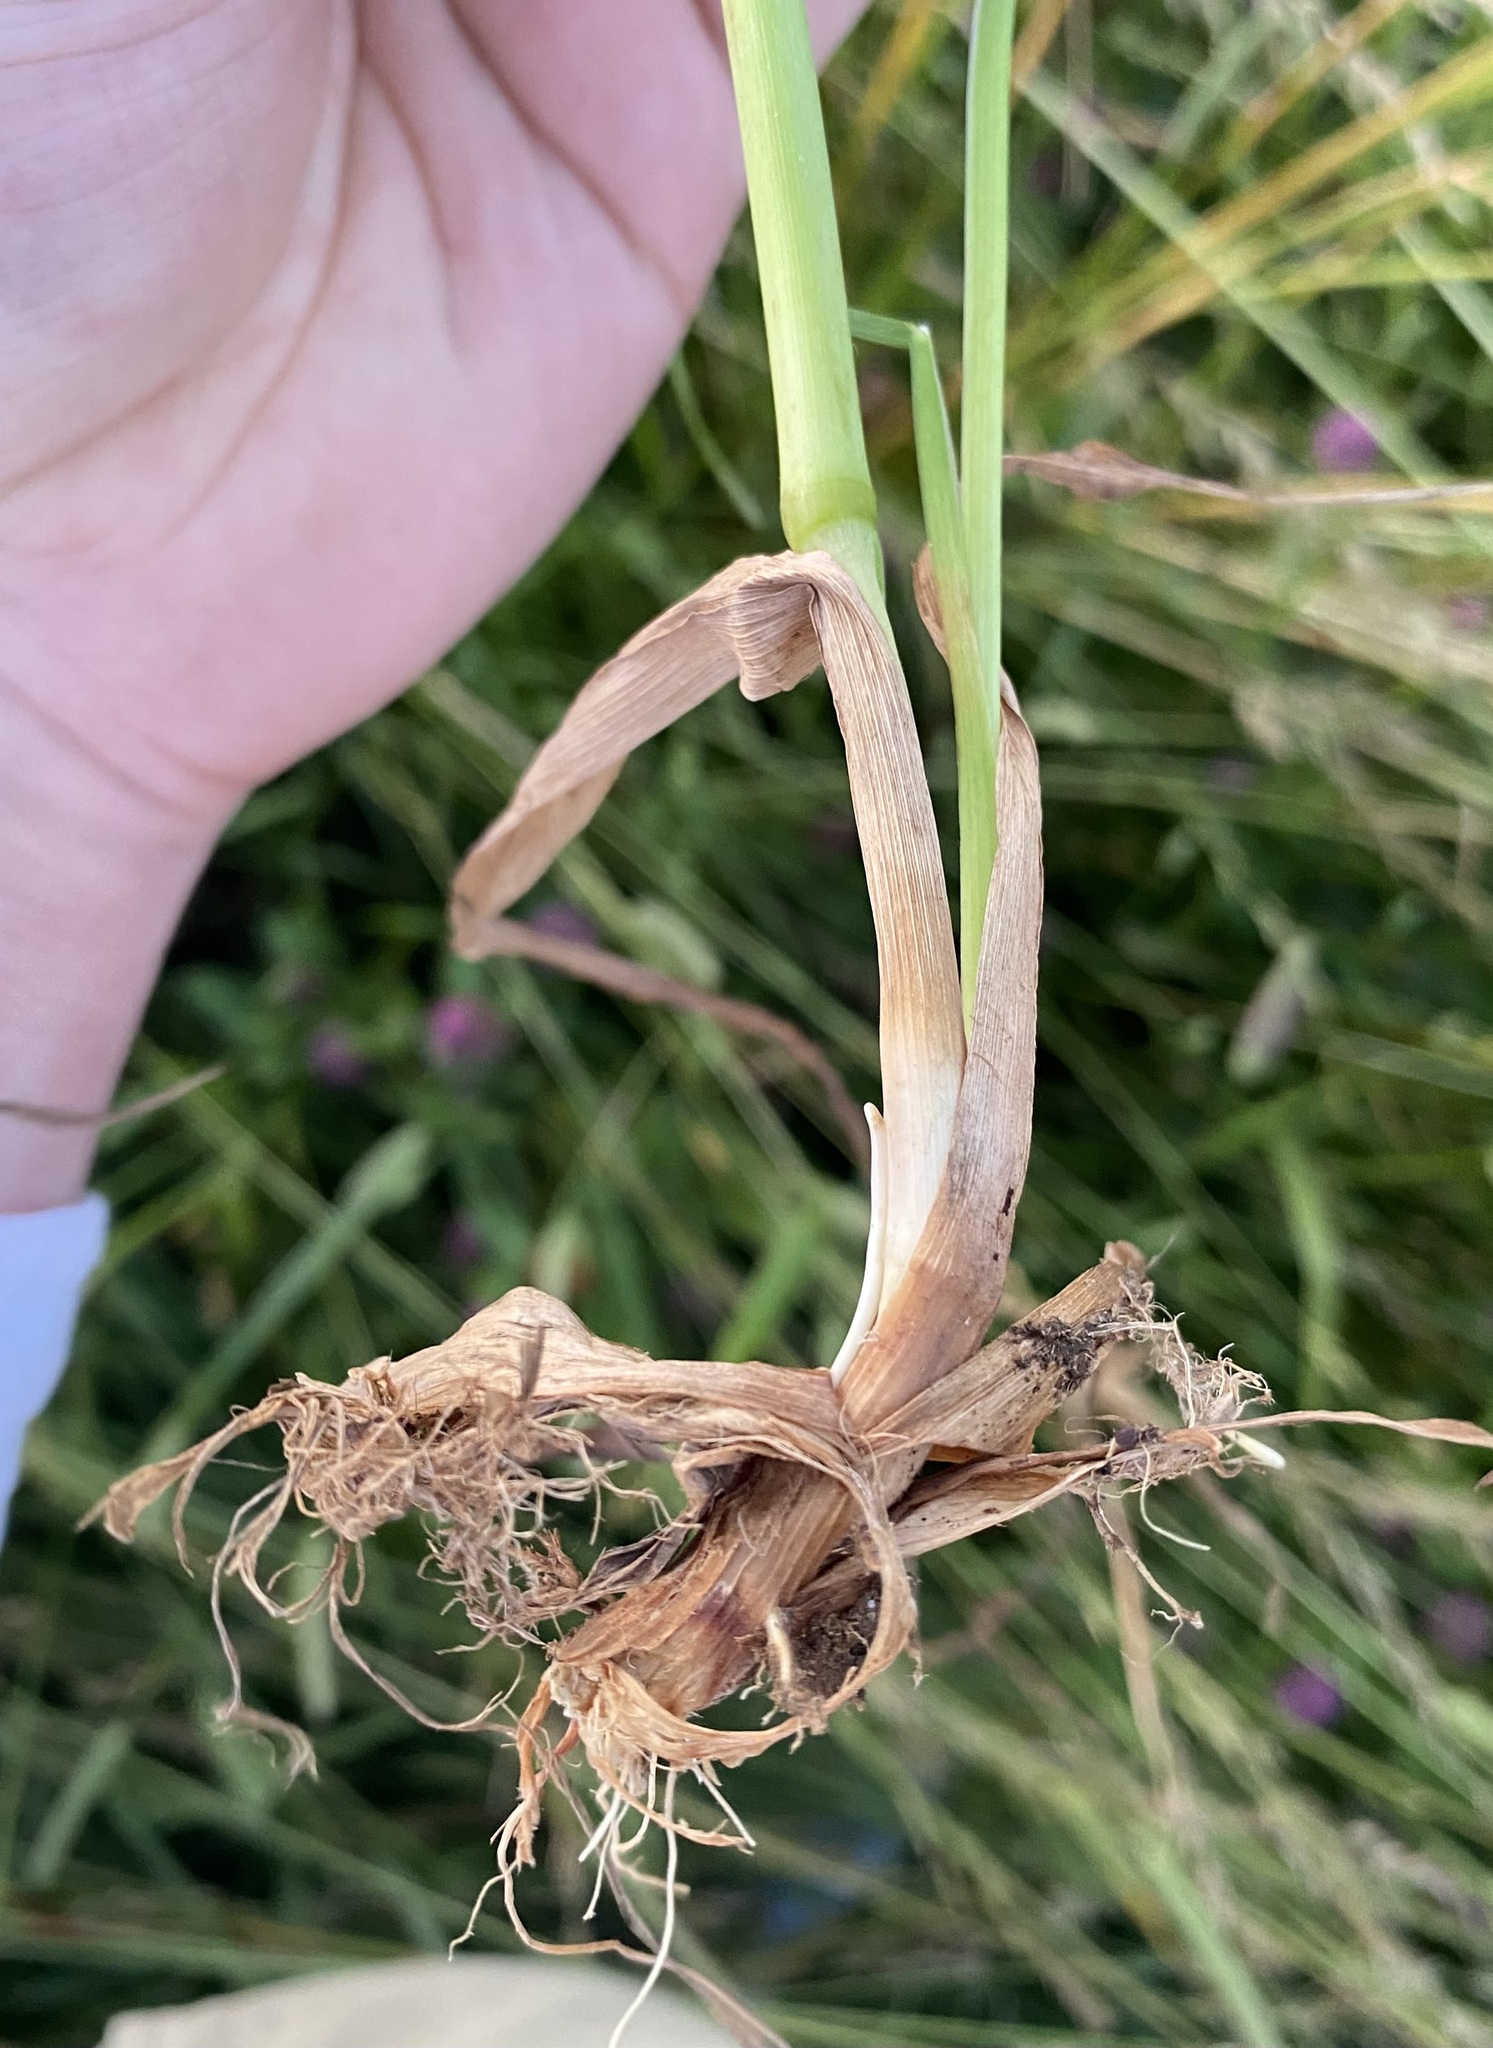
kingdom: Plantae
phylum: Tracheophyta
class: Liliopsida
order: Poales
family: Poaceae
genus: Dactylis
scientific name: Dactylis glomerata
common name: Orchardgrass
